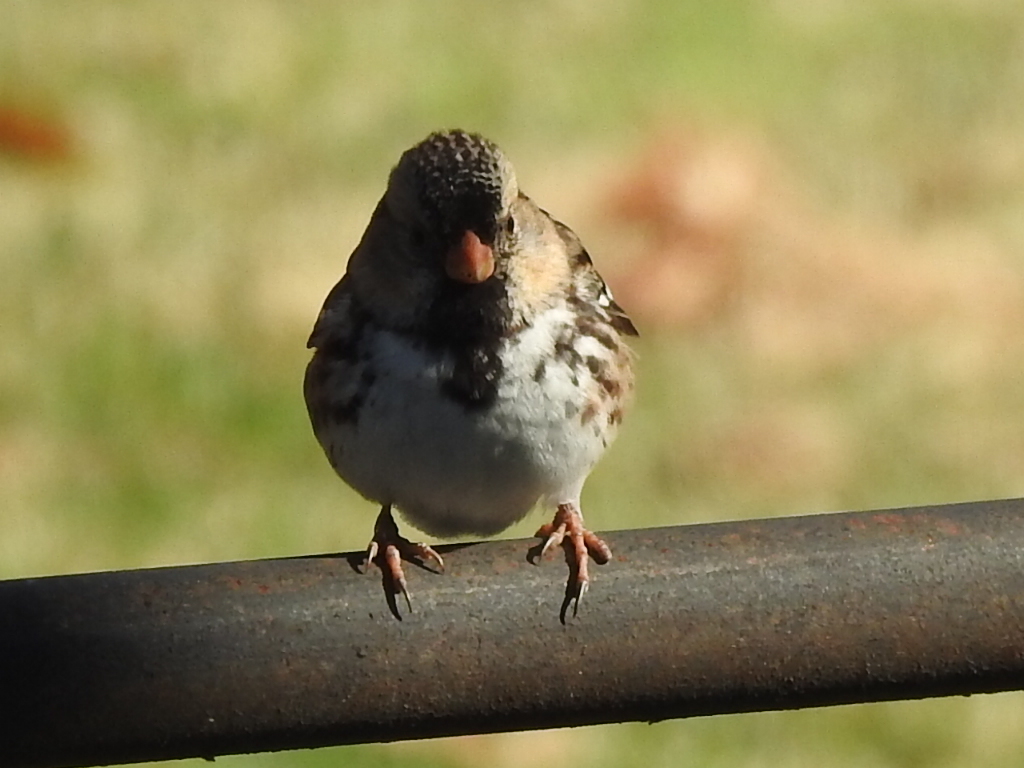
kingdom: Animalia
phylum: Chordata
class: Aves
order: Passeriformes
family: Passerellidae
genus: Zonotrichia
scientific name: Zonotrichia querula
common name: Harris's sparrow
